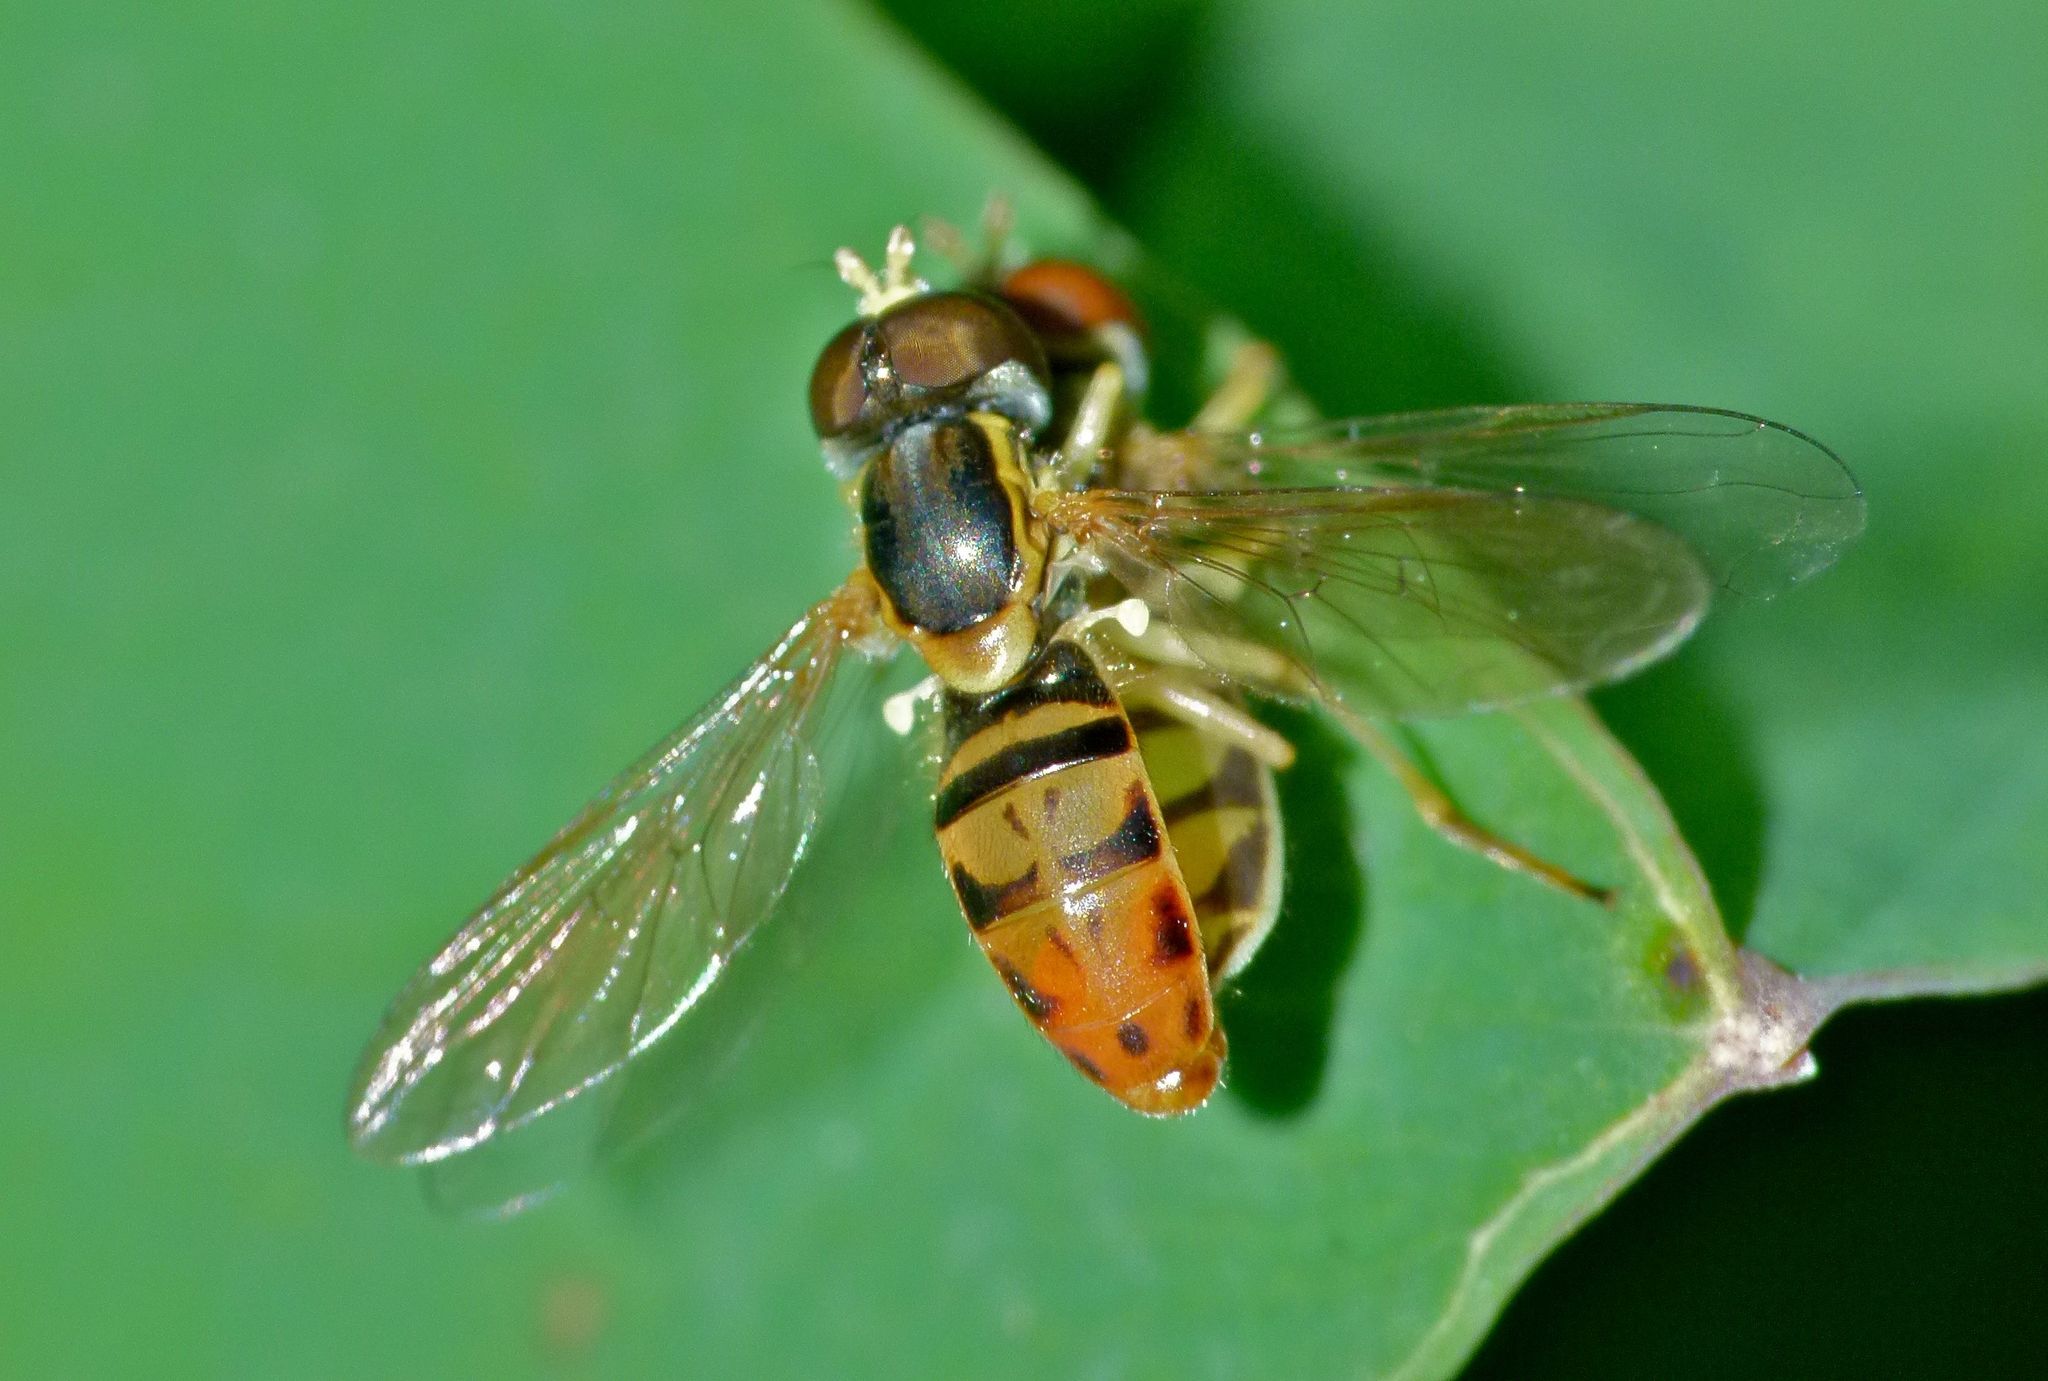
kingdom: Animalia
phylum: Arthropoda
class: Insecta
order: Diptera
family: Syrphidae
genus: Toxomerus
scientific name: Toxomerus marginatus
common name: Syrphid fly
